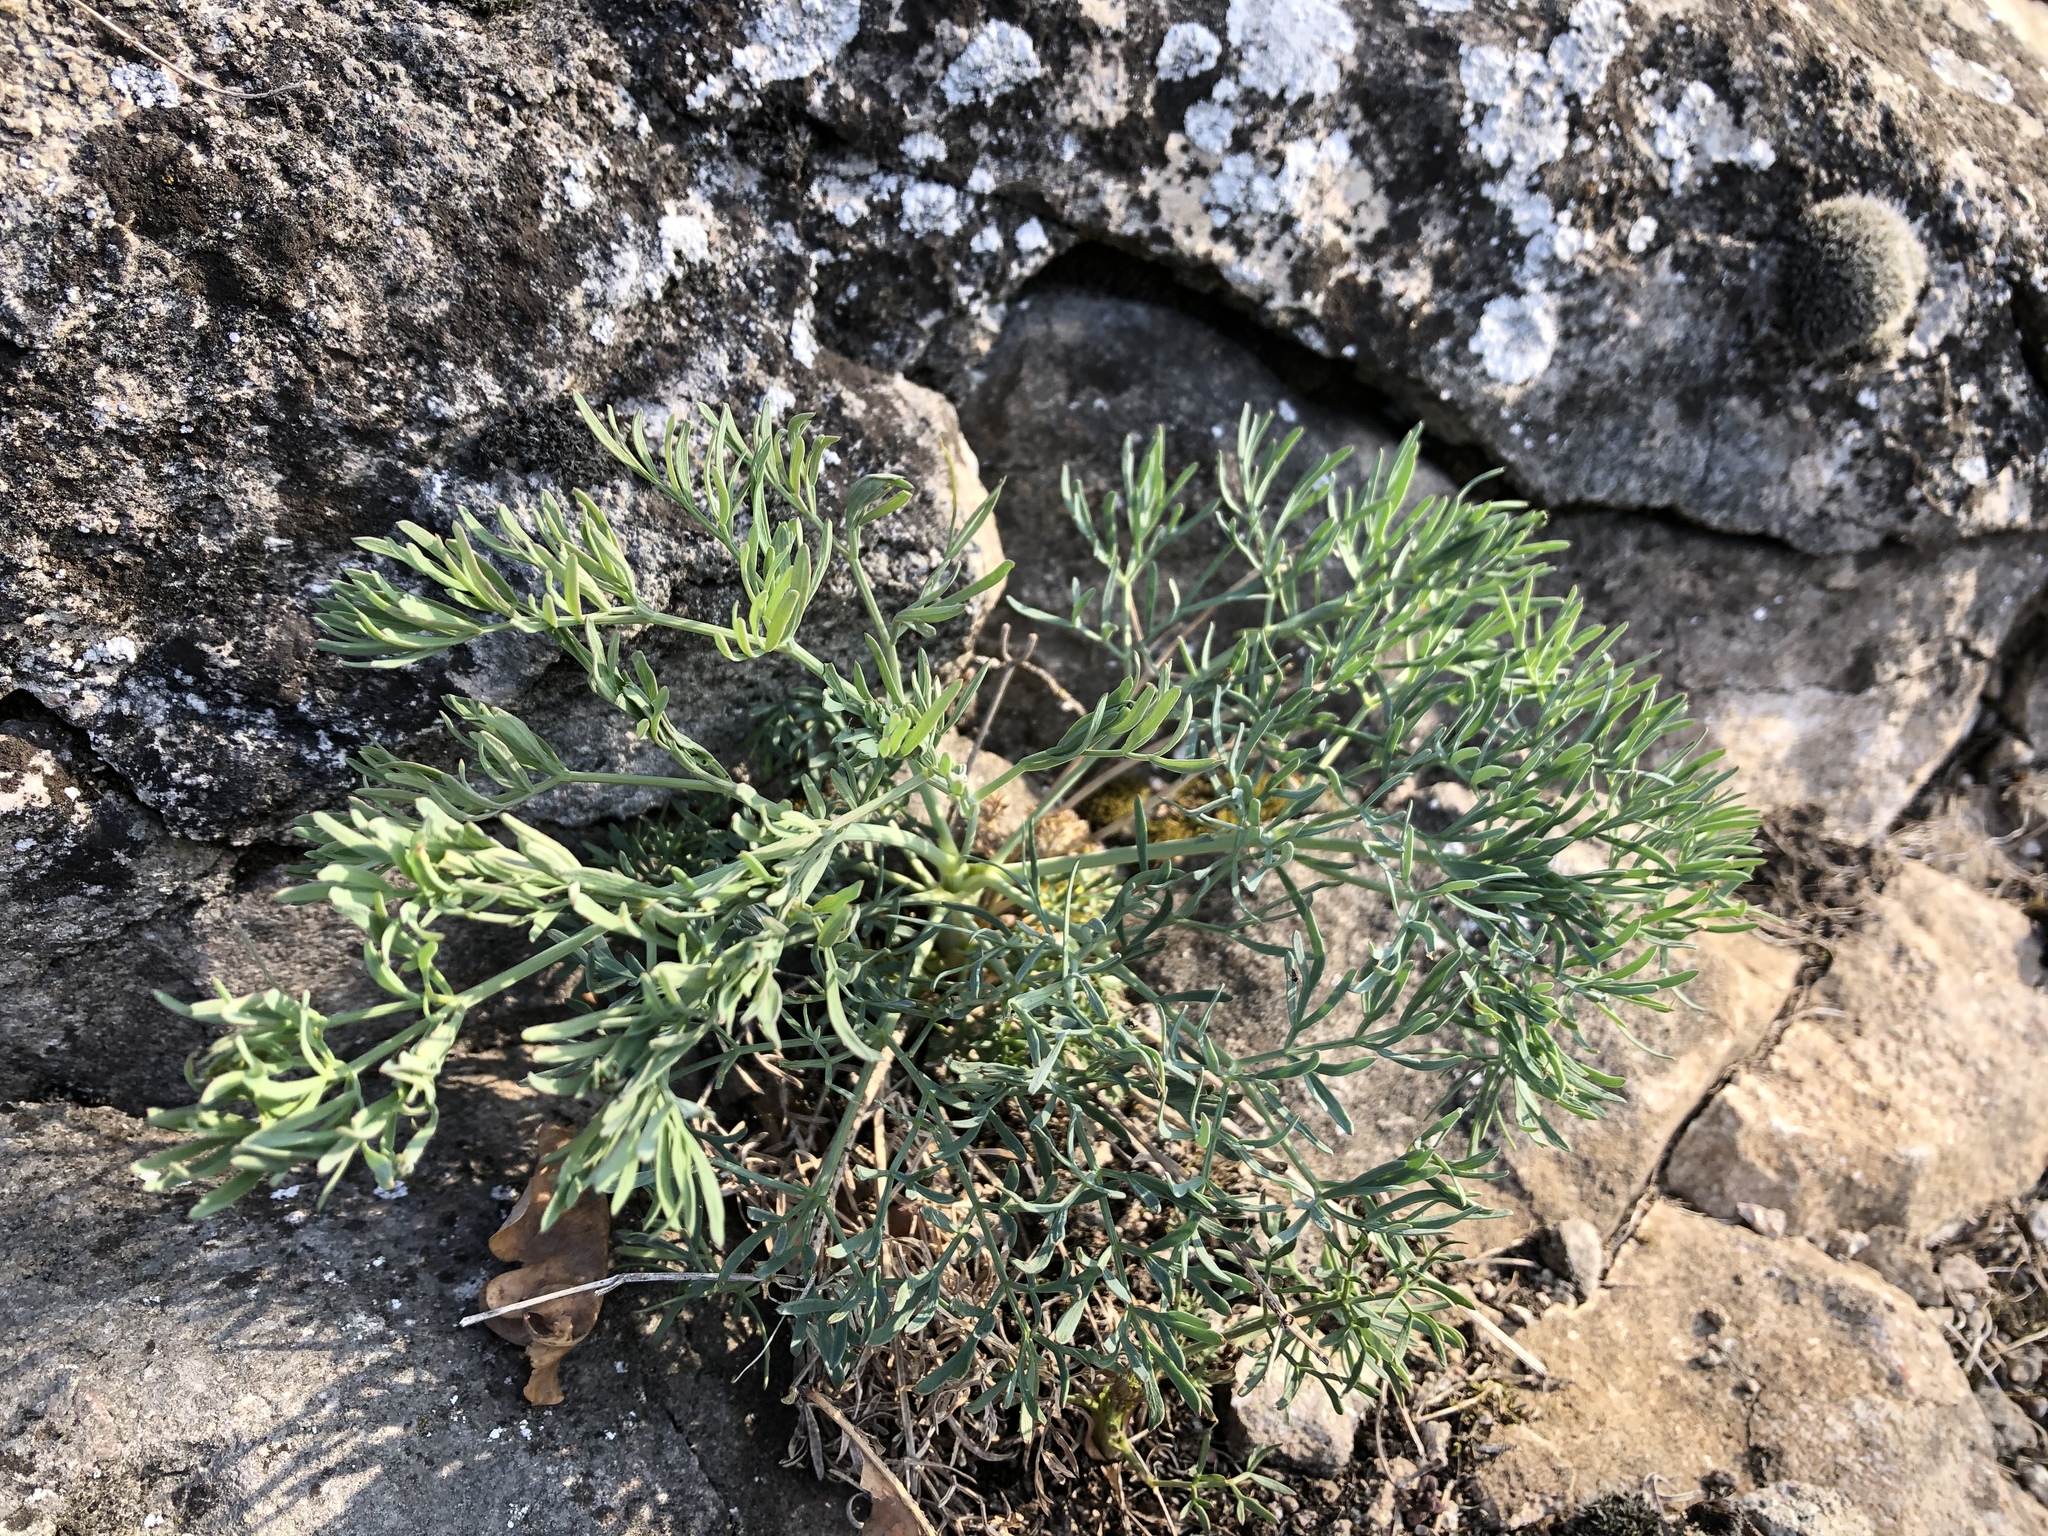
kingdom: Plantae
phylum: Tracheophyta
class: Magnoliopsida
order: Apiales
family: Apiaceae
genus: Seseli
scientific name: Seseli osseum
